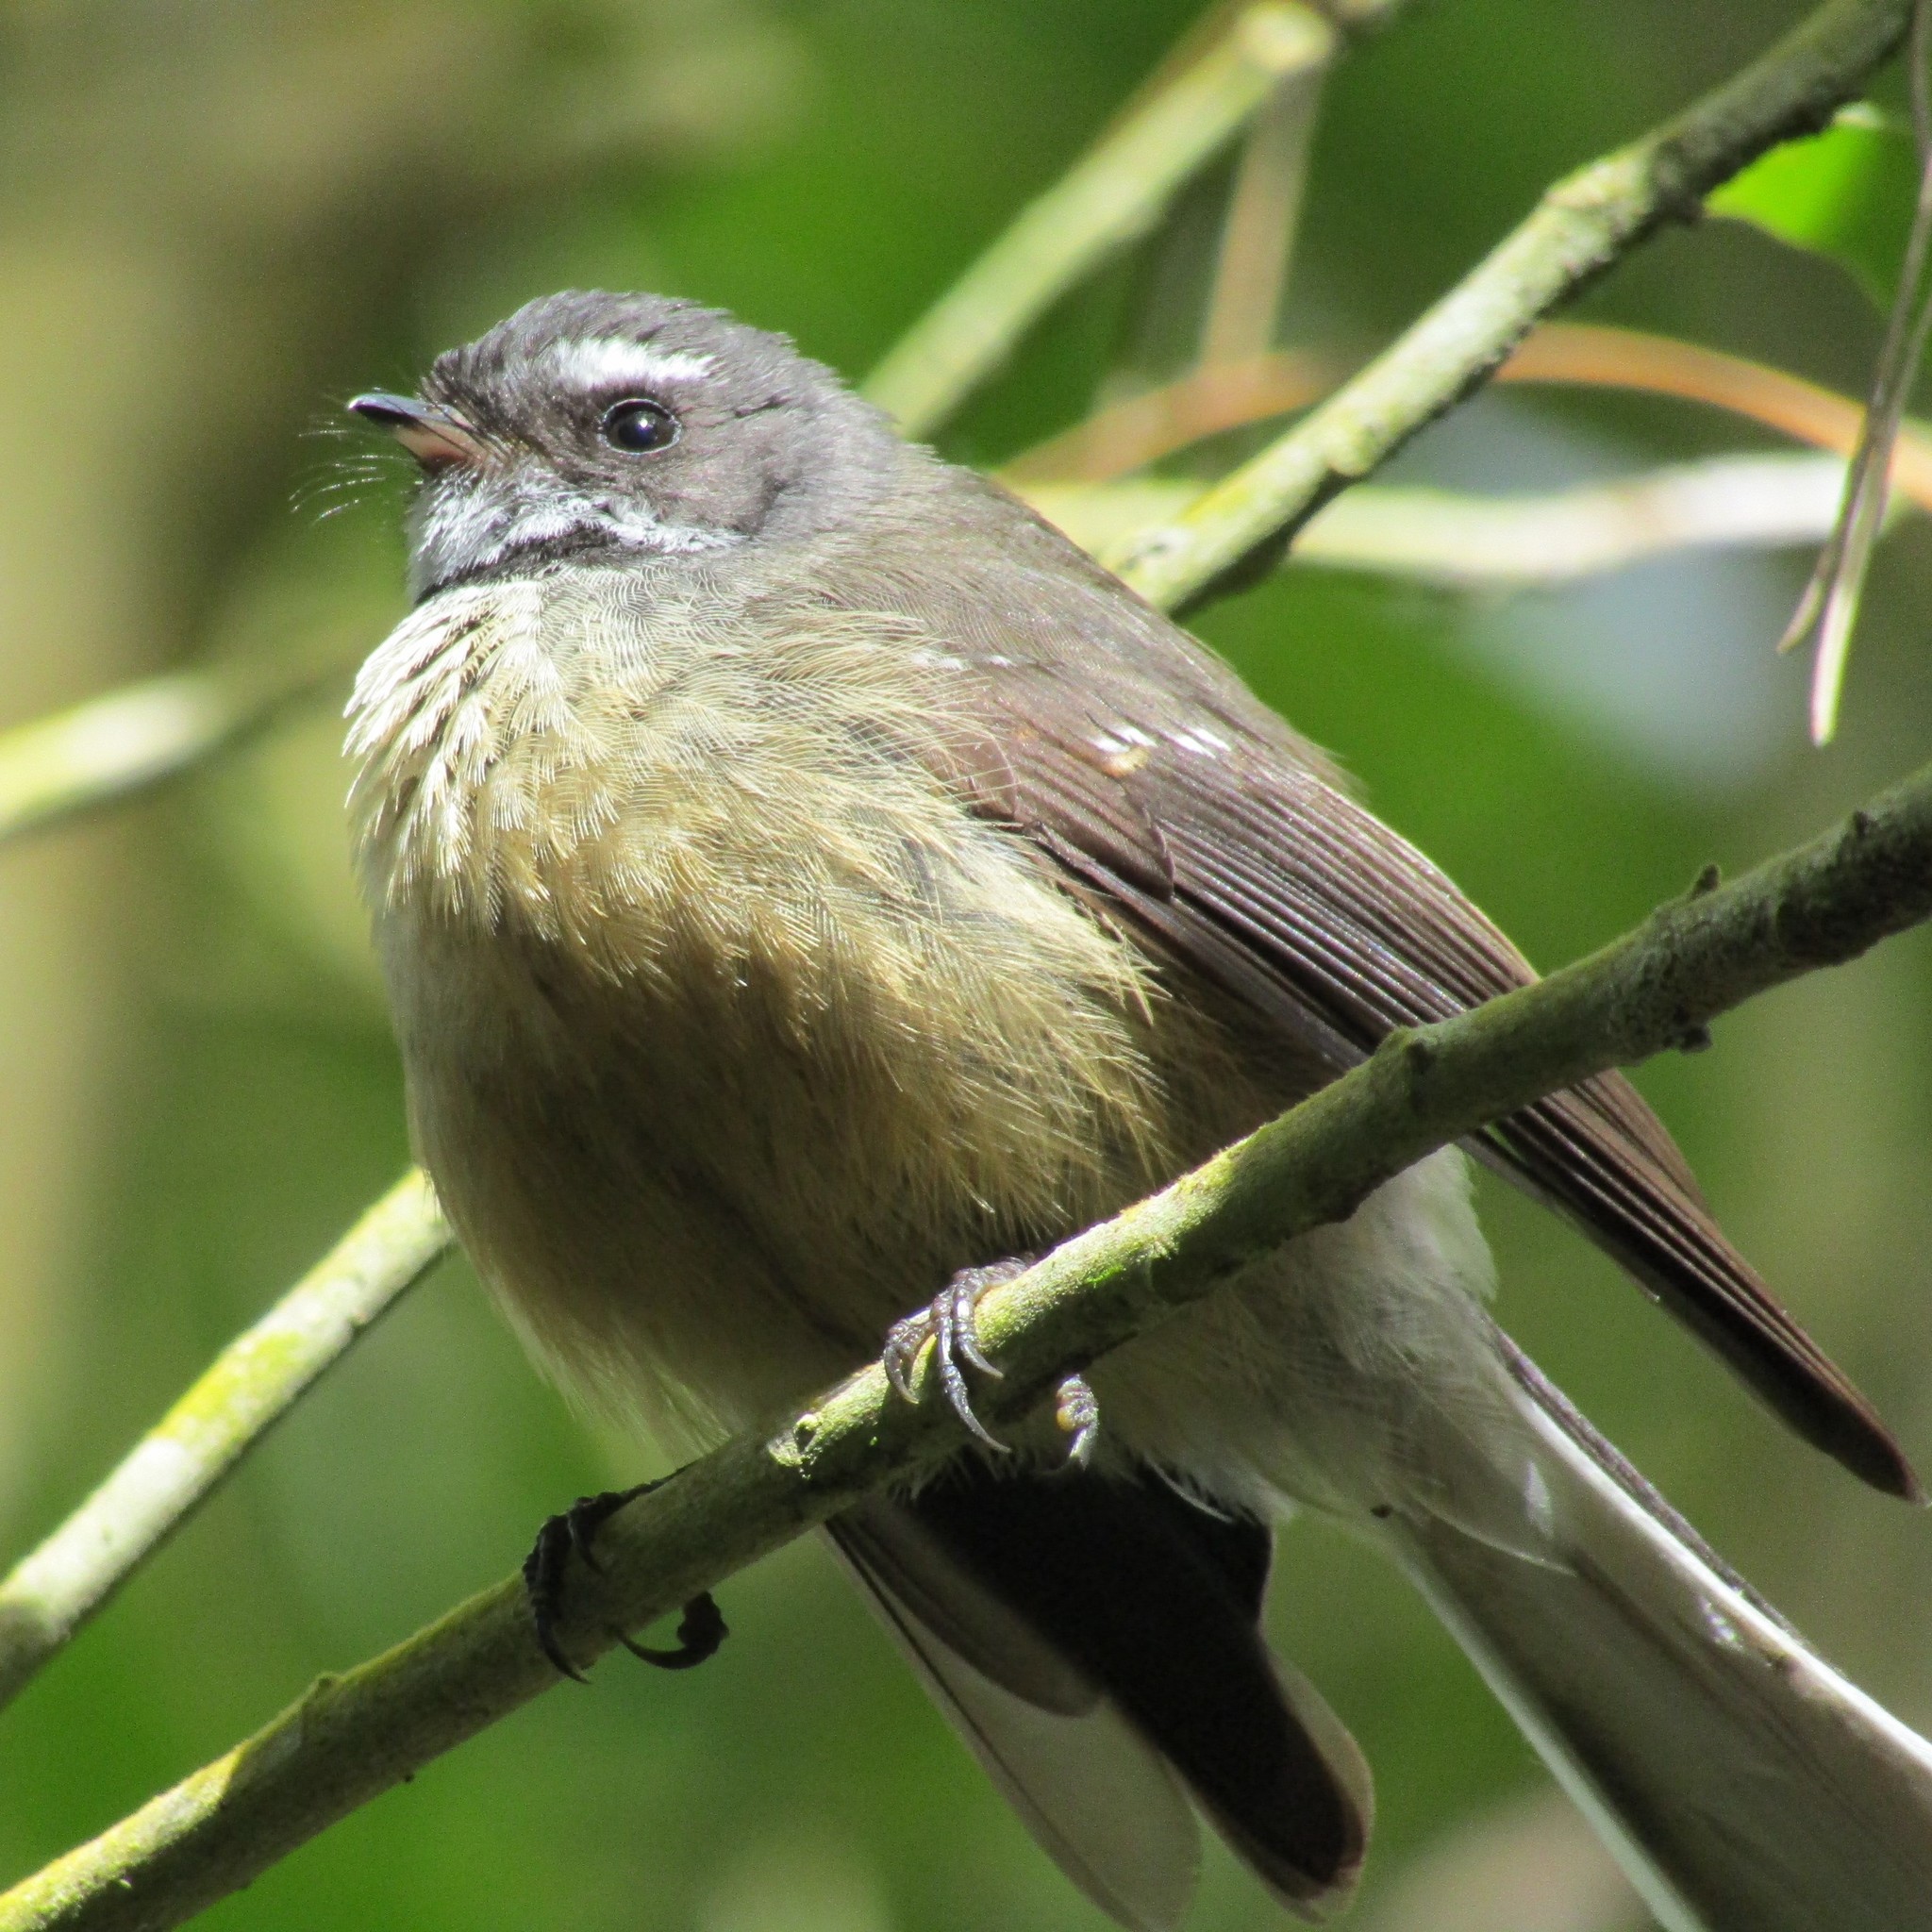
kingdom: Animalia
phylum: Chordata
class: Aves
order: Passeriformes
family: Rhipiduridae
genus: Rhipidura
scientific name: Rhipidura fuliginosa
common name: New zealand fantail
